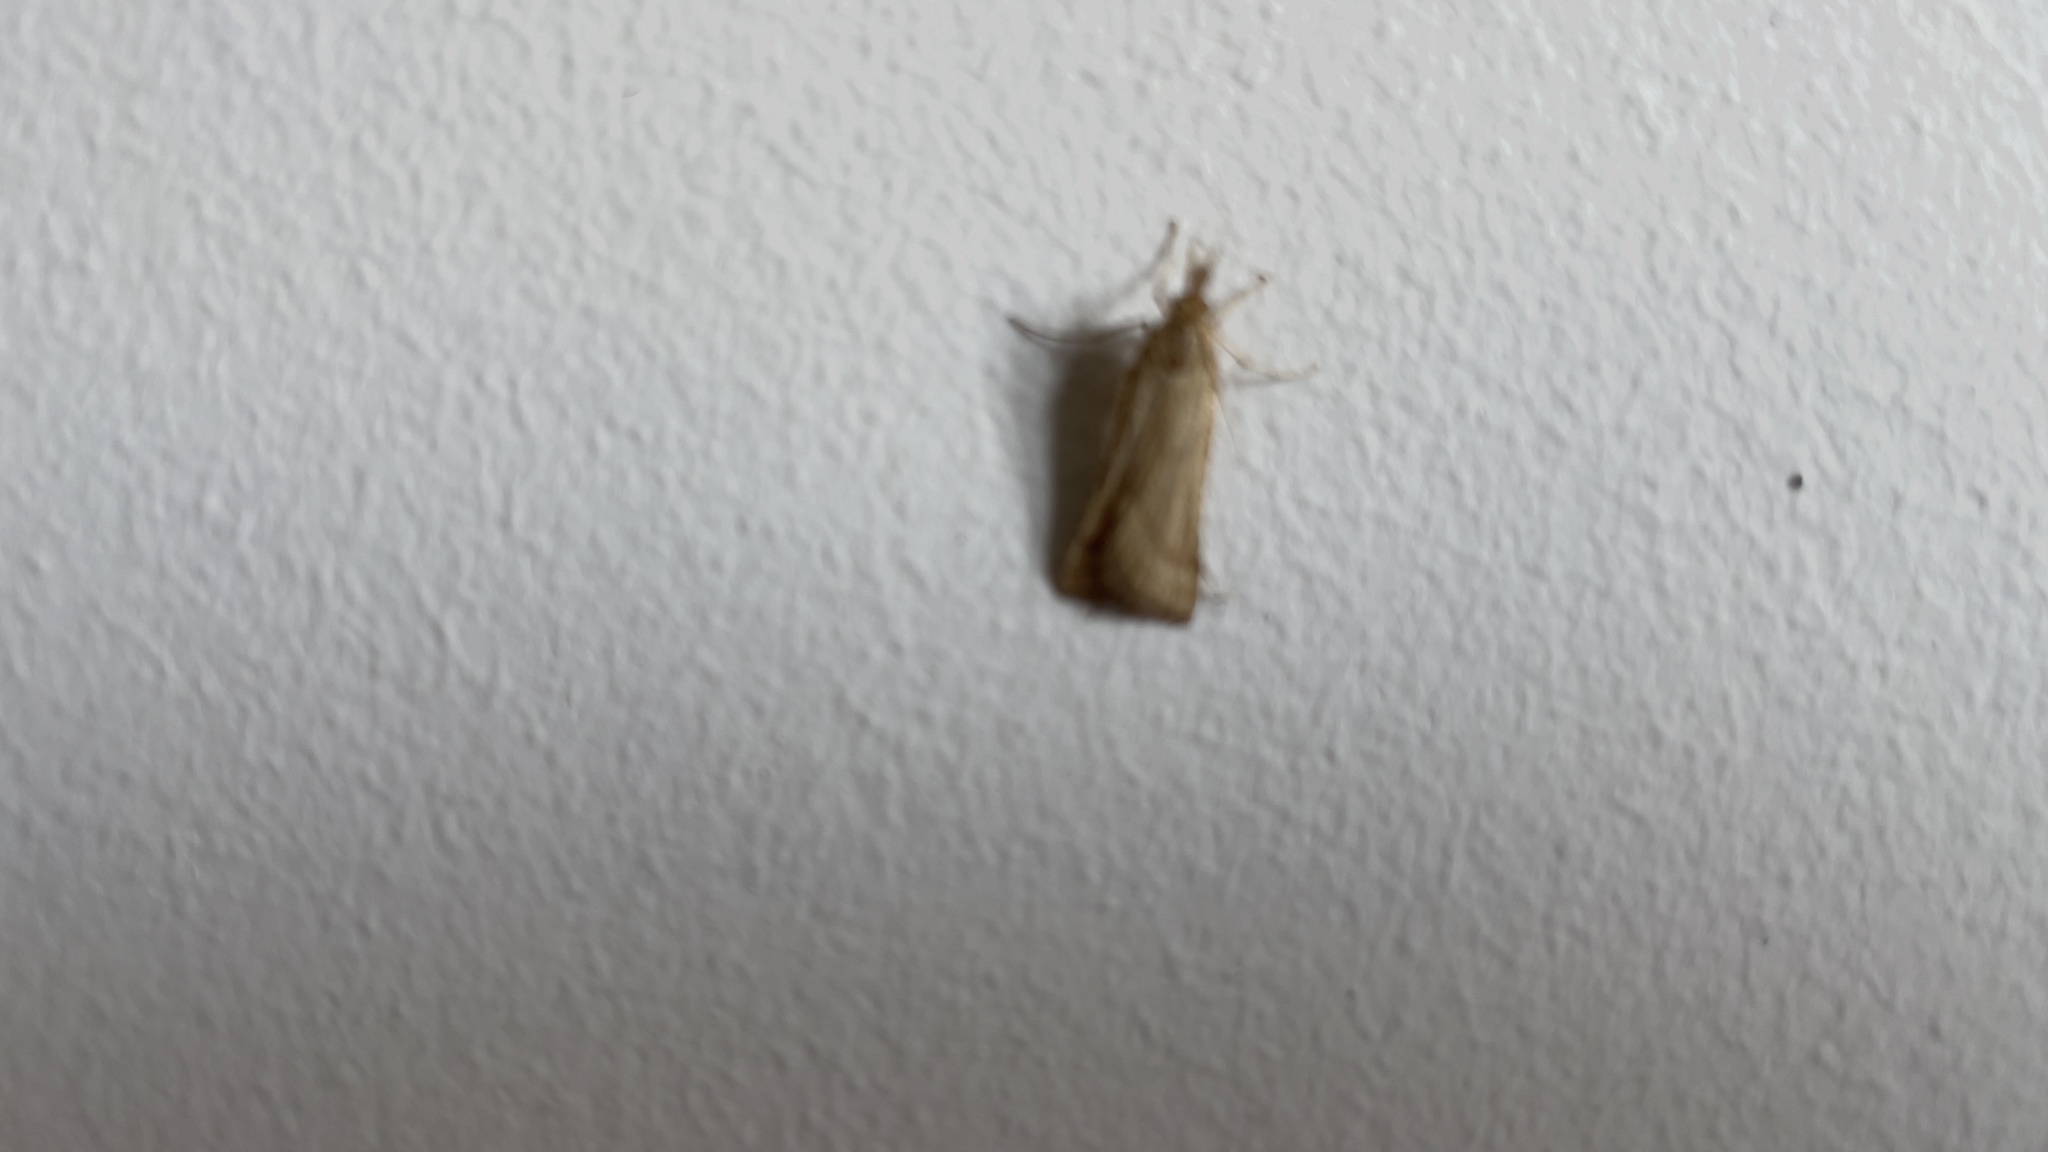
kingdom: Animalia
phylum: Arthropoda
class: Insecta
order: Lepidoptera
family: Pyralidae
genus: Synaphe
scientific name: Synaphe punctalis
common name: Long-legged tabby
